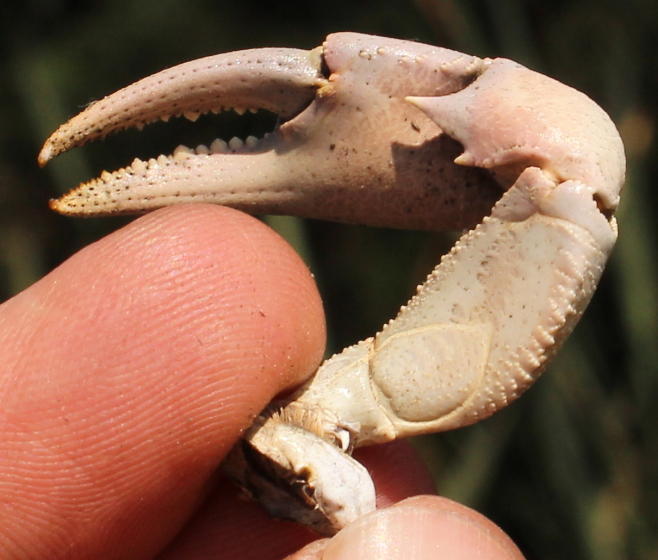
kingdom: Animalia
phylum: Arthropoda
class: Malacostraca
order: Decapoda
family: Potamonautidae
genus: Potamonautes
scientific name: Potamonautes unispinus
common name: Single-spined river crab
